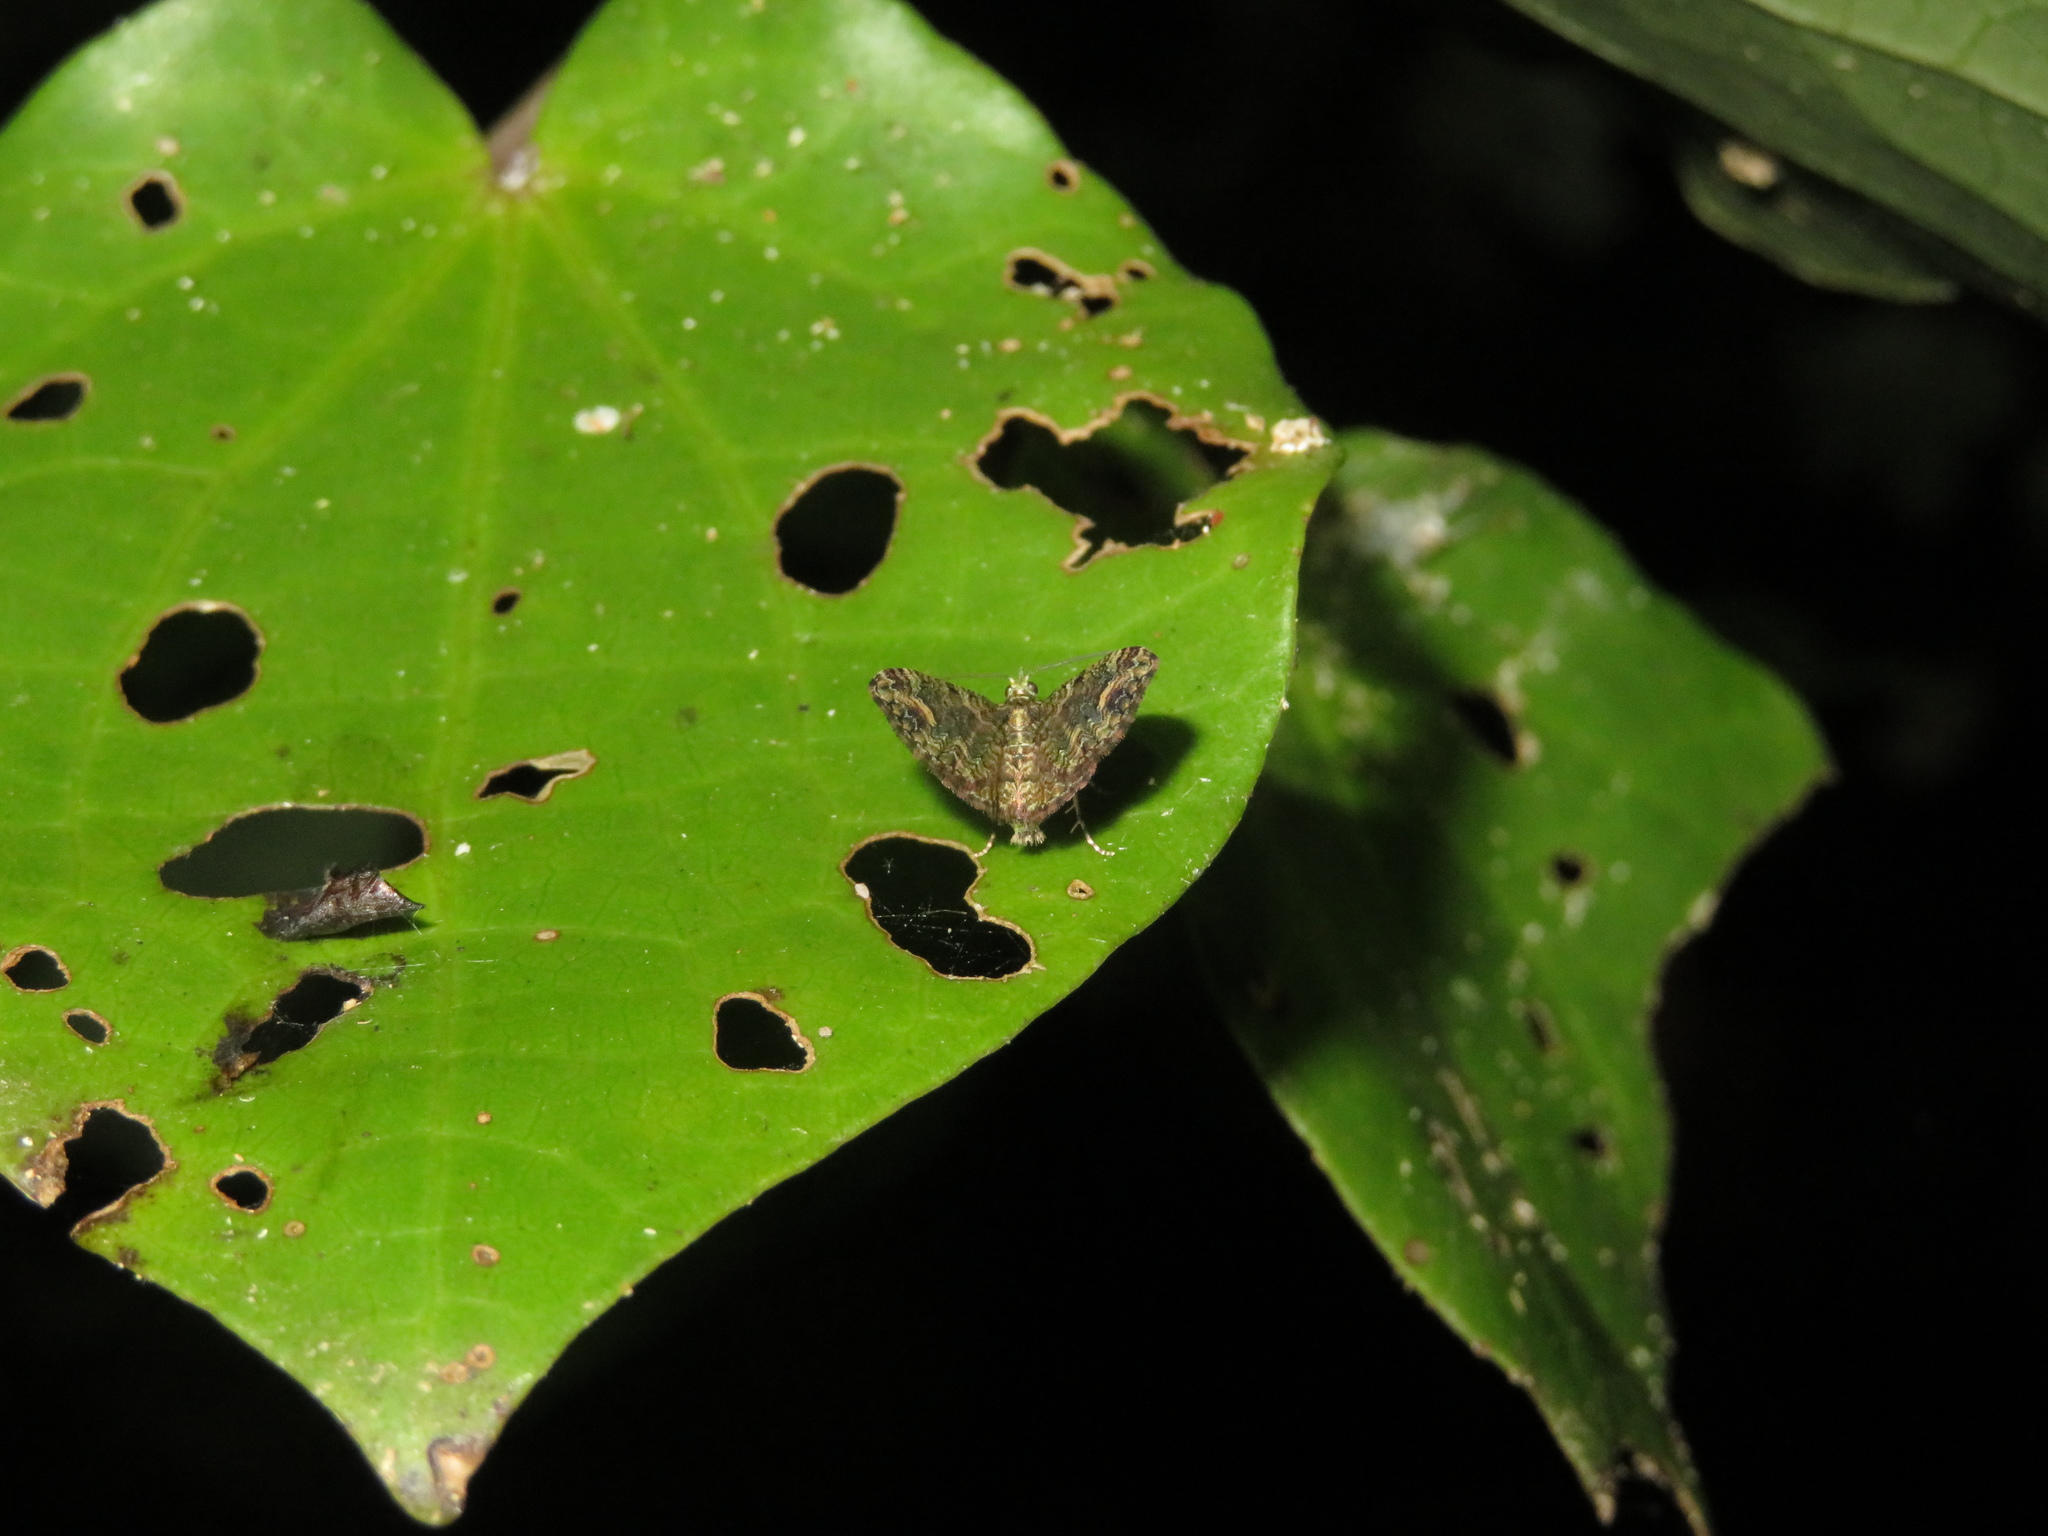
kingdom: Animalia
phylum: Arthropoda
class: Insecta
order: Lepidoptera
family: Geometridae
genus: Idaea
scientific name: Idaea mutanda
